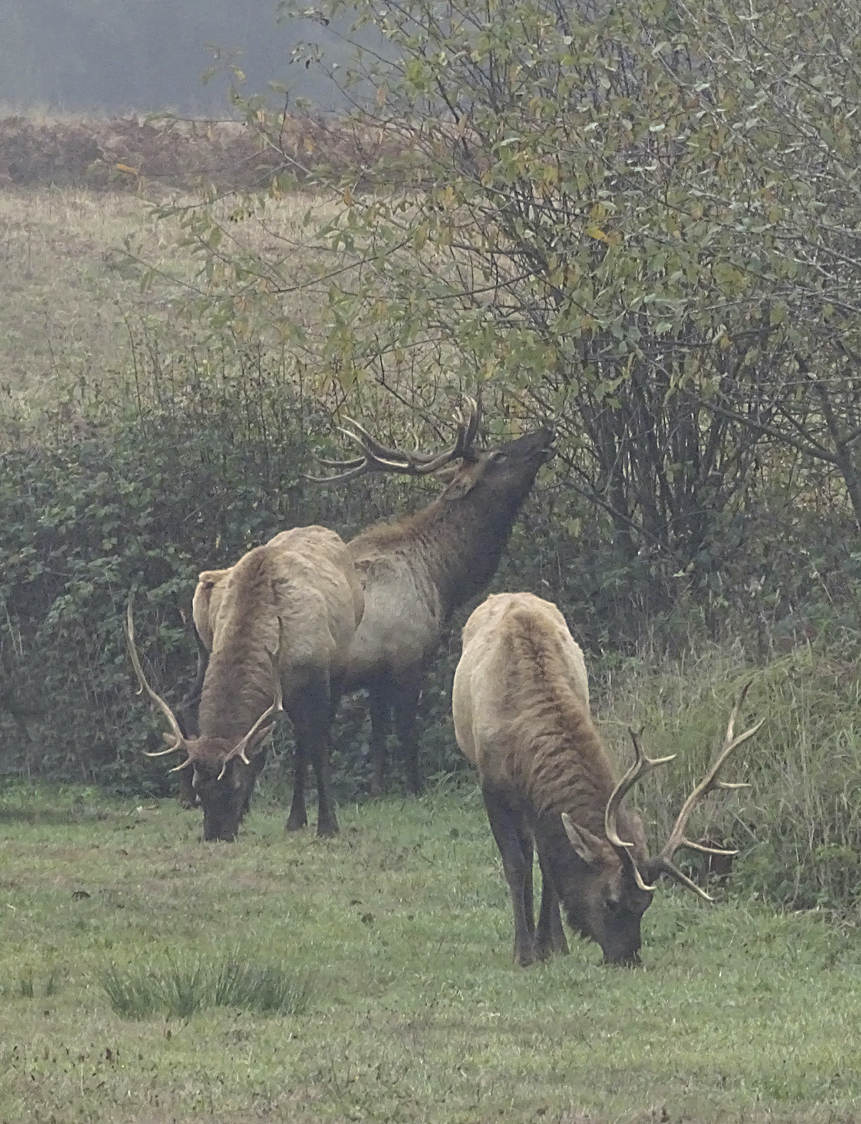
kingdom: Animalia
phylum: Chordata
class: Mammalia
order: Artiodactyla
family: Cervidae
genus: Cervus
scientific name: Cervus elaphus
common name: Red deer
